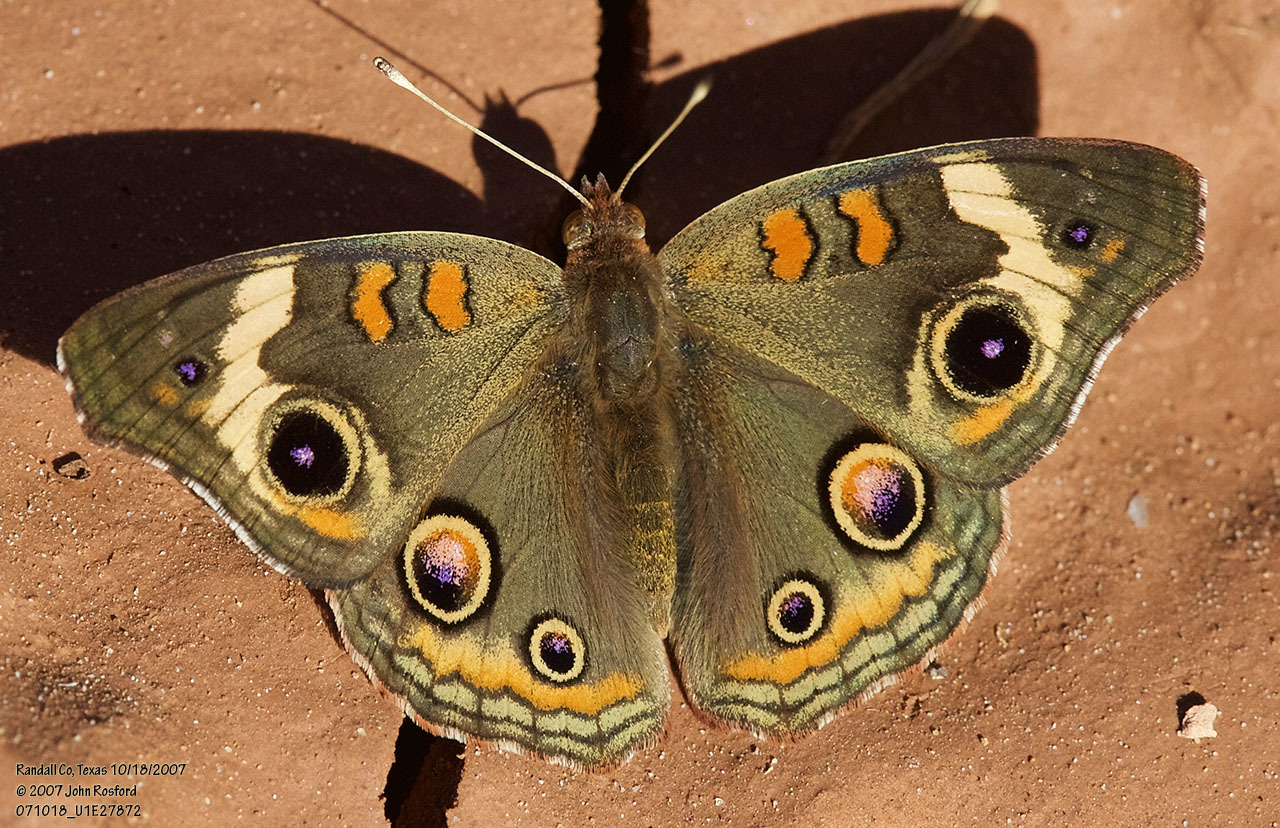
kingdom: Animalia
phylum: Arthropoda
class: Insecta
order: Lepidoptera
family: Nymphalidae
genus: Junonia
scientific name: Junonia coenia
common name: Common buckeye
